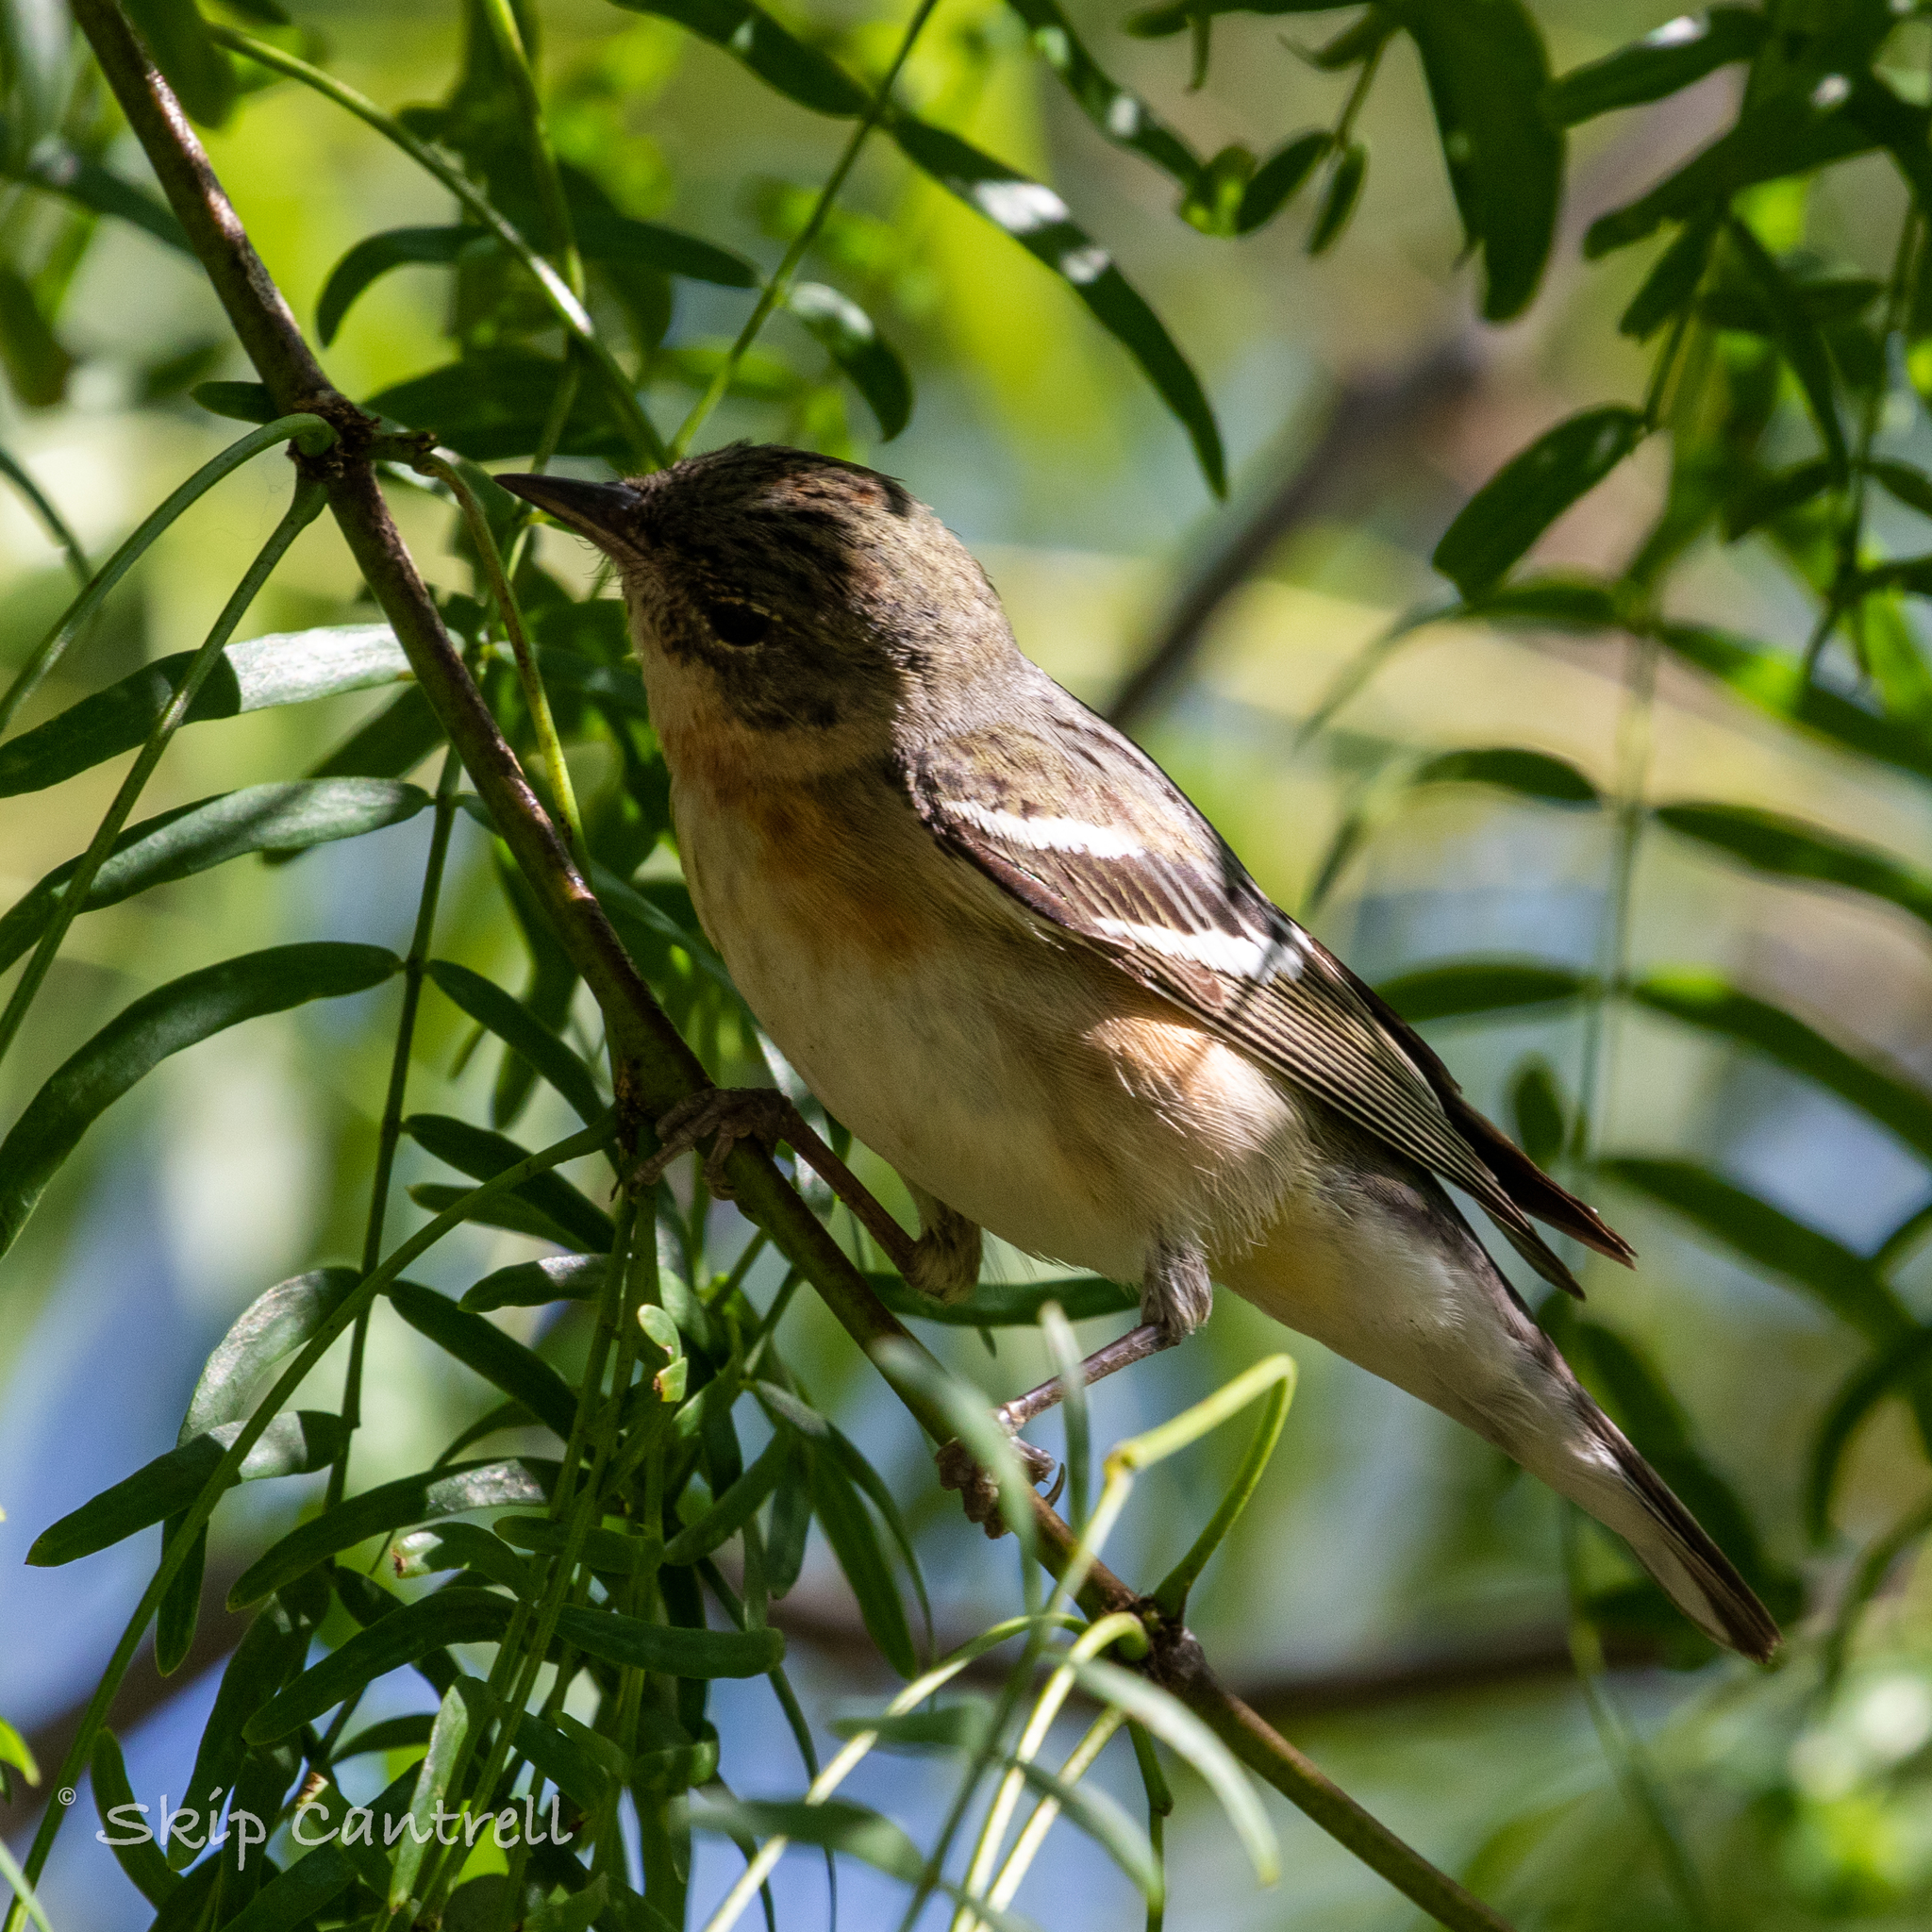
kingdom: Animalia
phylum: Chordata
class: Aves
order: Passeriformes
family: Parulidae
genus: Setophaga
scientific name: Setophaga castanea
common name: Bay-breasted warbler
